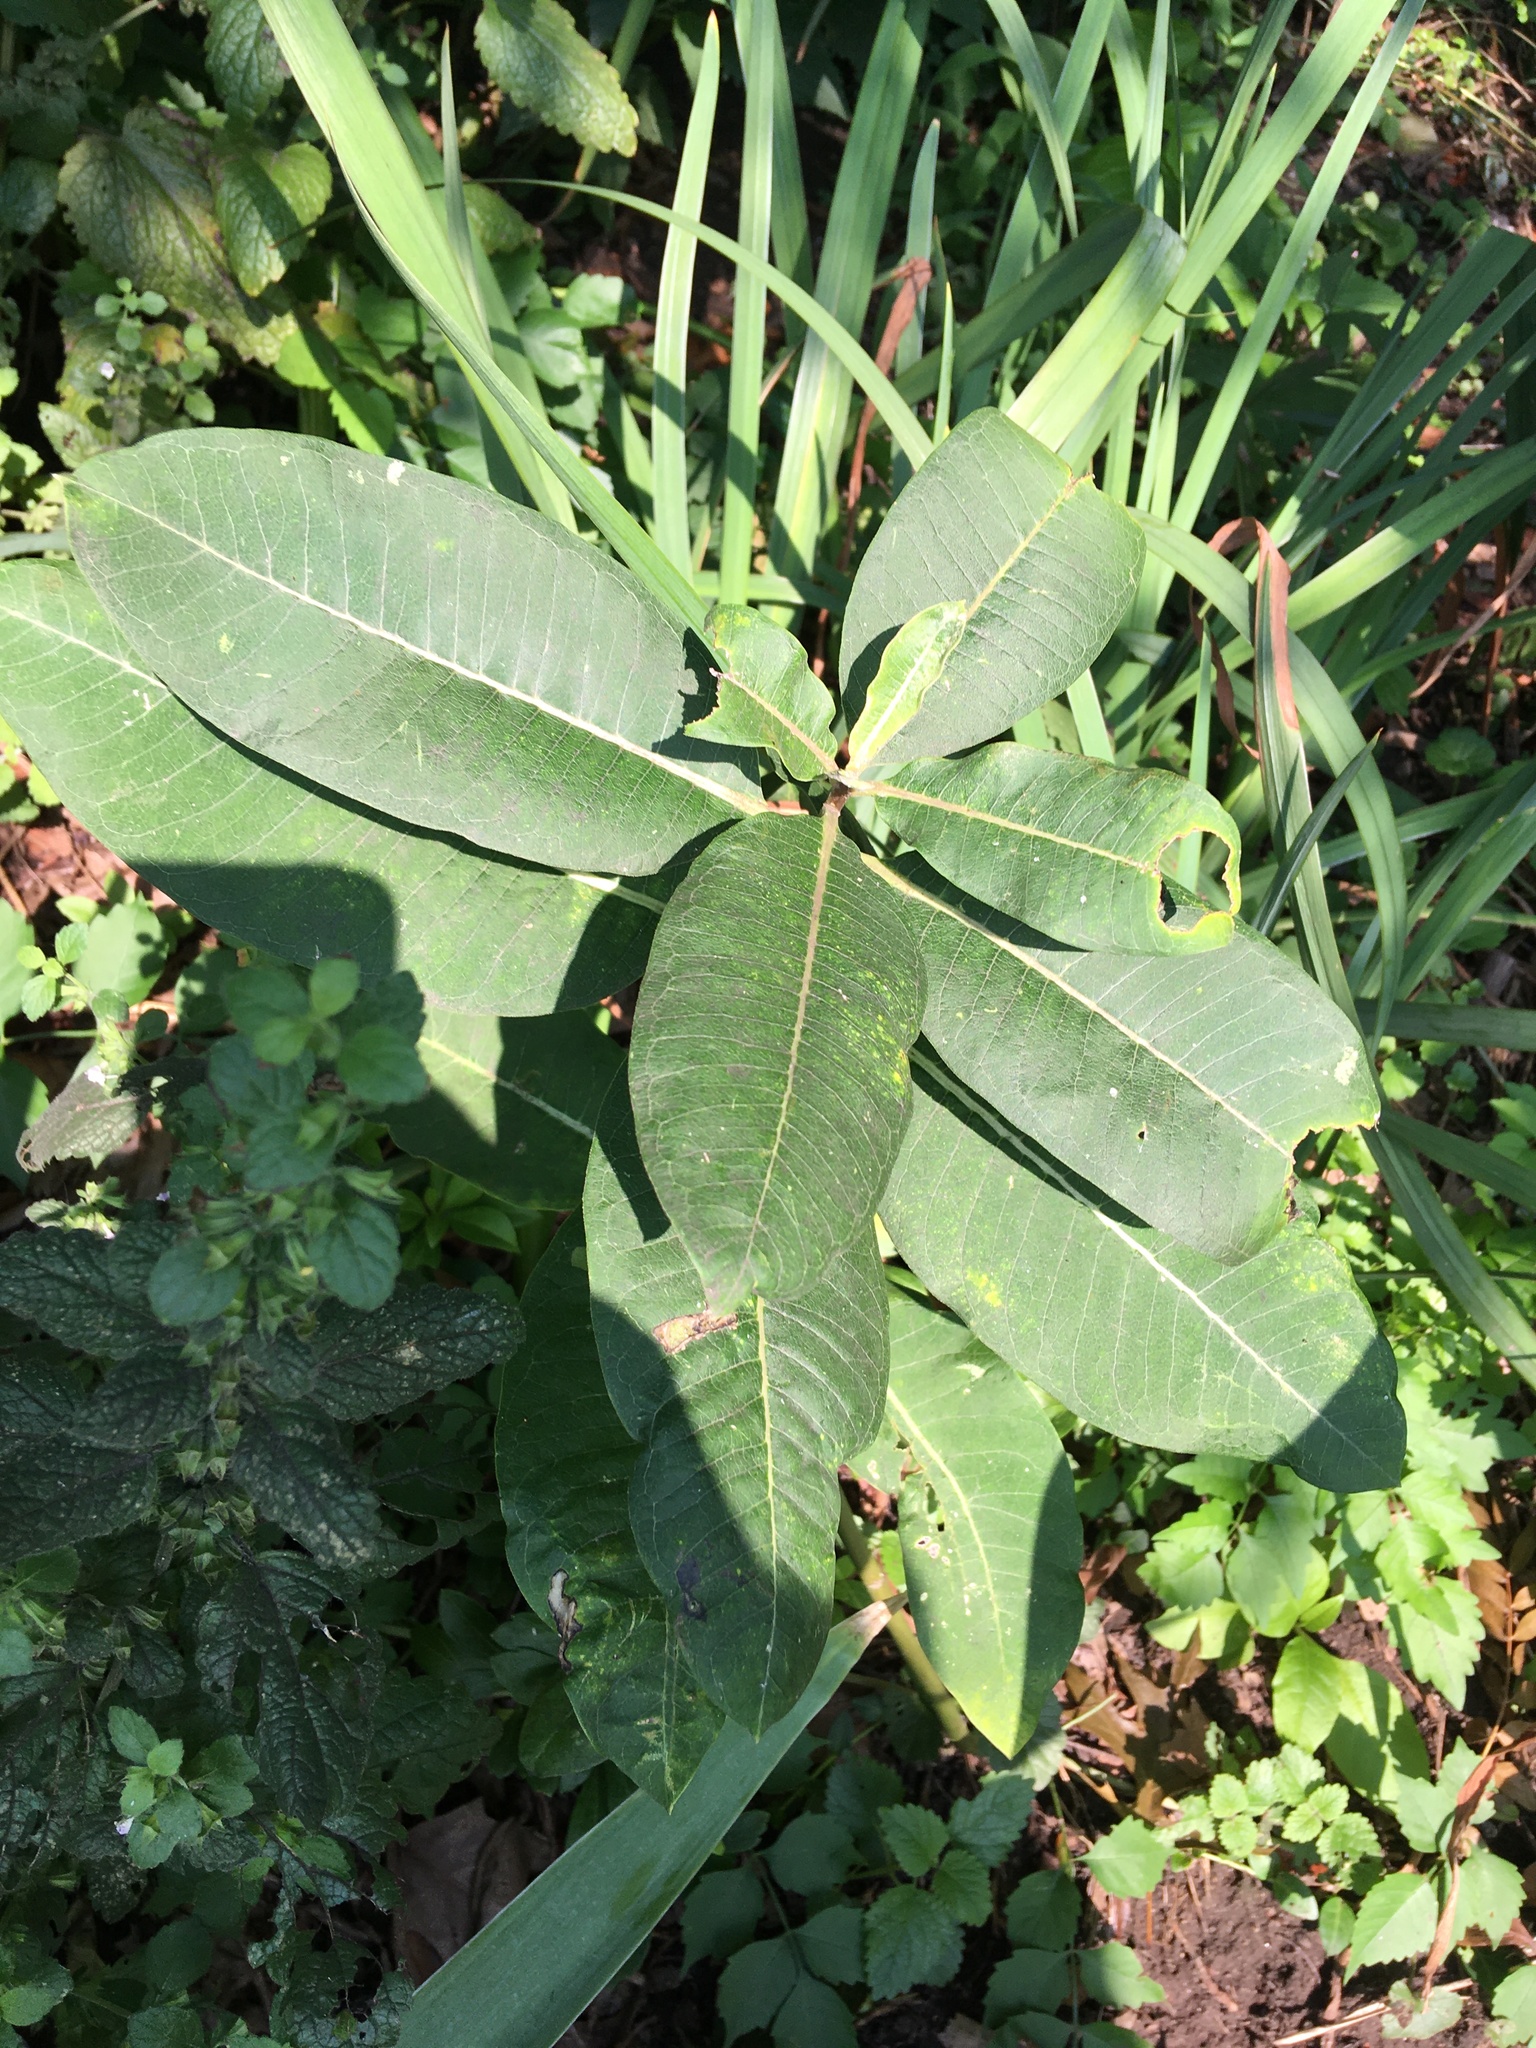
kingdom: Plantae
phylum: Tracheophyta
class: Magnoliopsida
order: Gentianales
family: Apocynaceae
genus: Asclepias
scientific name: Asclepias syriaca
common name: Common milkweed
